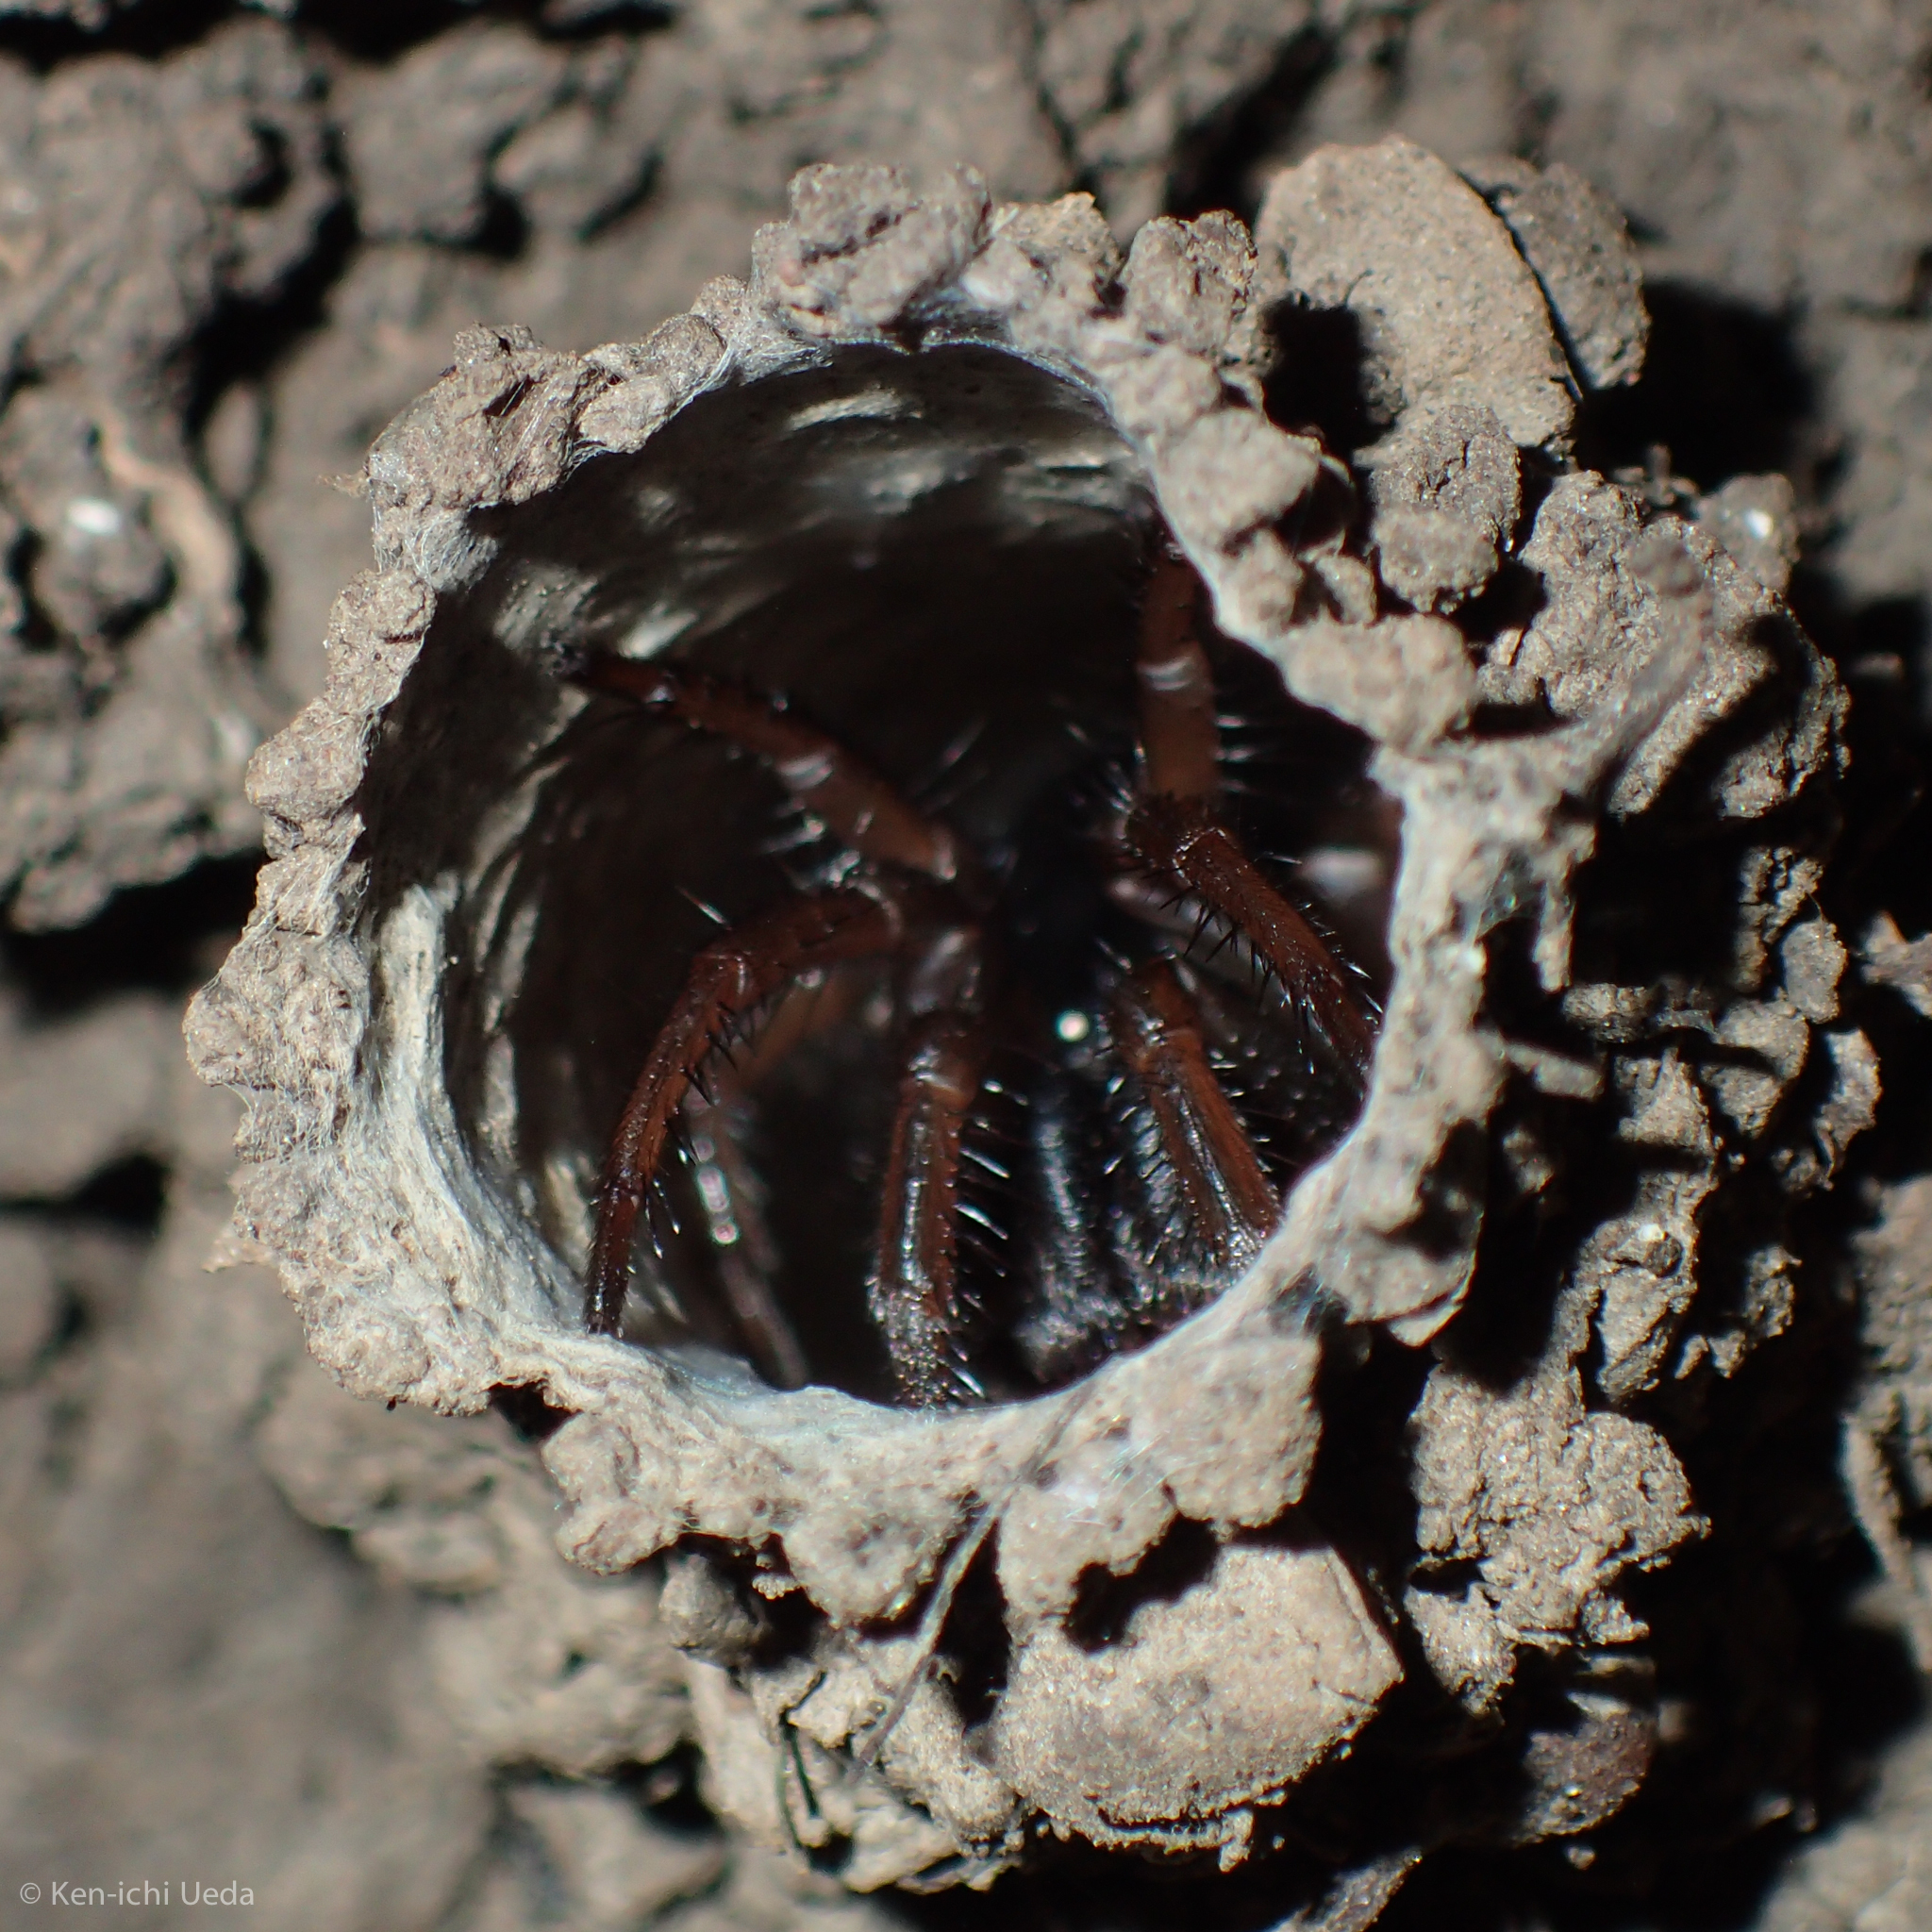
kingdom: Animalia
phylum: Arthropoda
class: Arachnida
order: Araneae
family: Antrodiaetidae
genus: Atypoides
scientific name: Atypoides riversi
